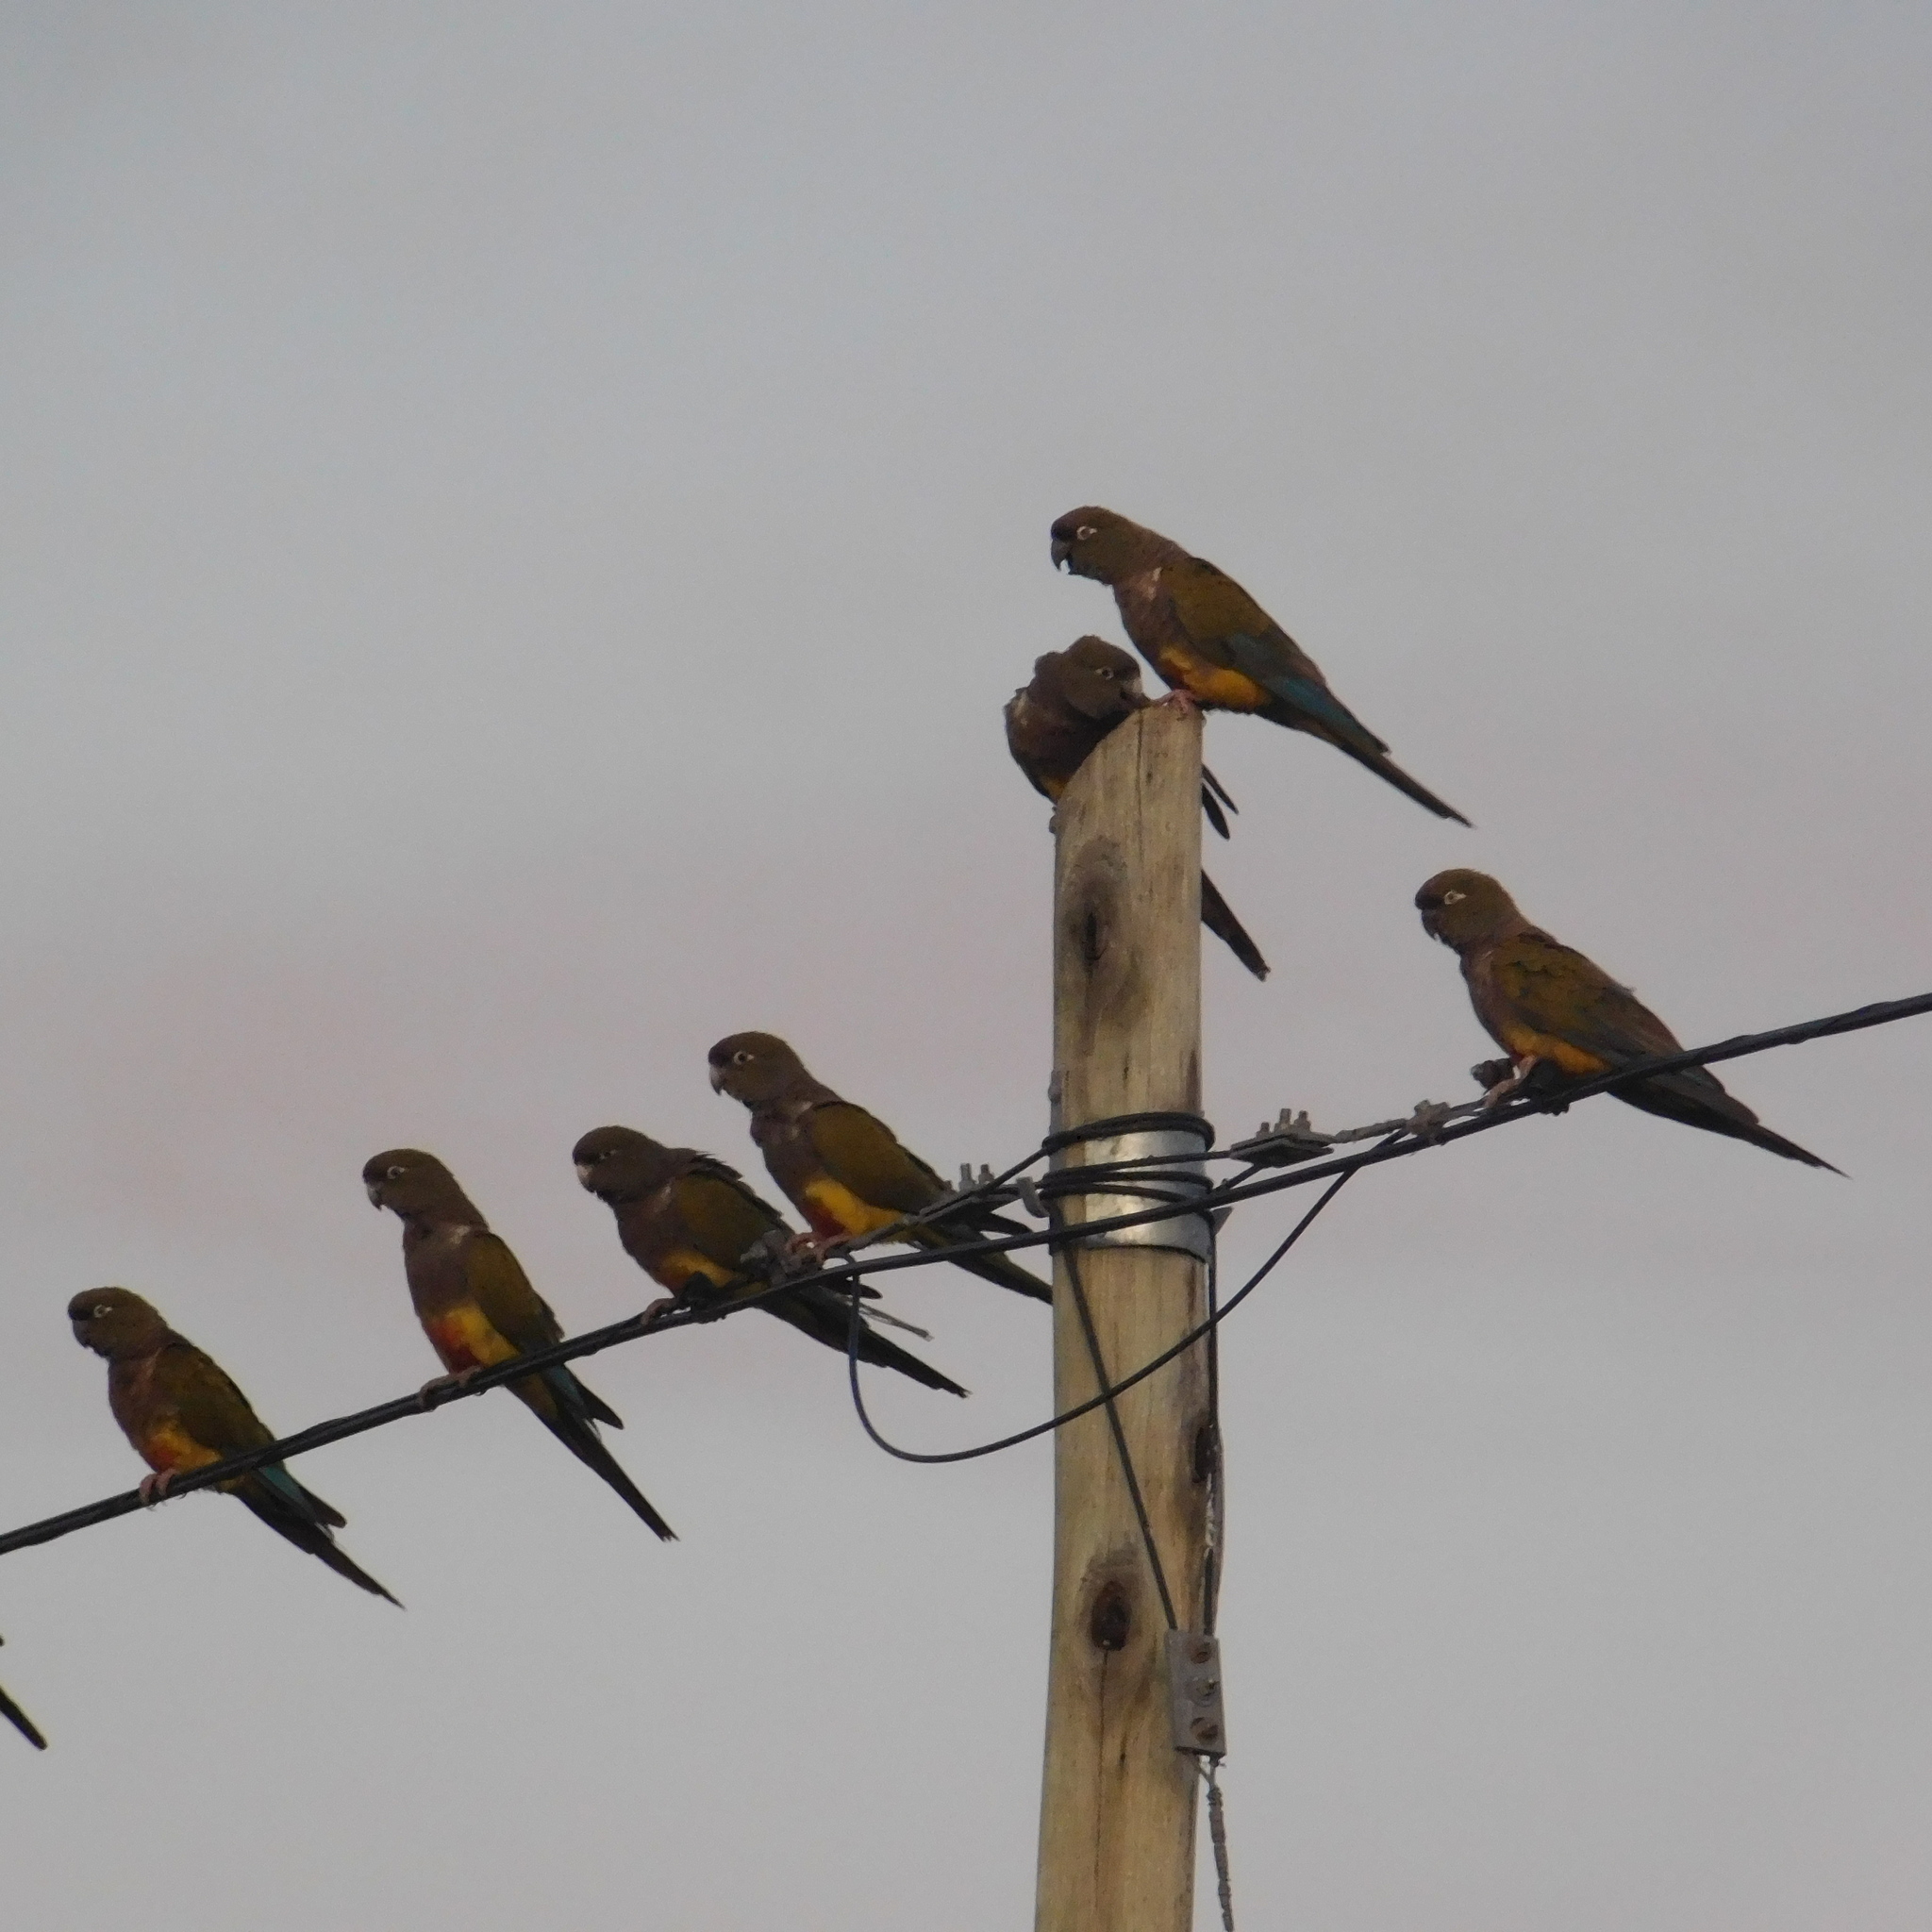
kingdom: Animalia
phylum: Chordata
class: Aves
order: Psittaciformes
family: Psittacidae
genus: Cyanoliseus
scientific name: Cyanoliseus patagonus
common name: Burrowing parrot
